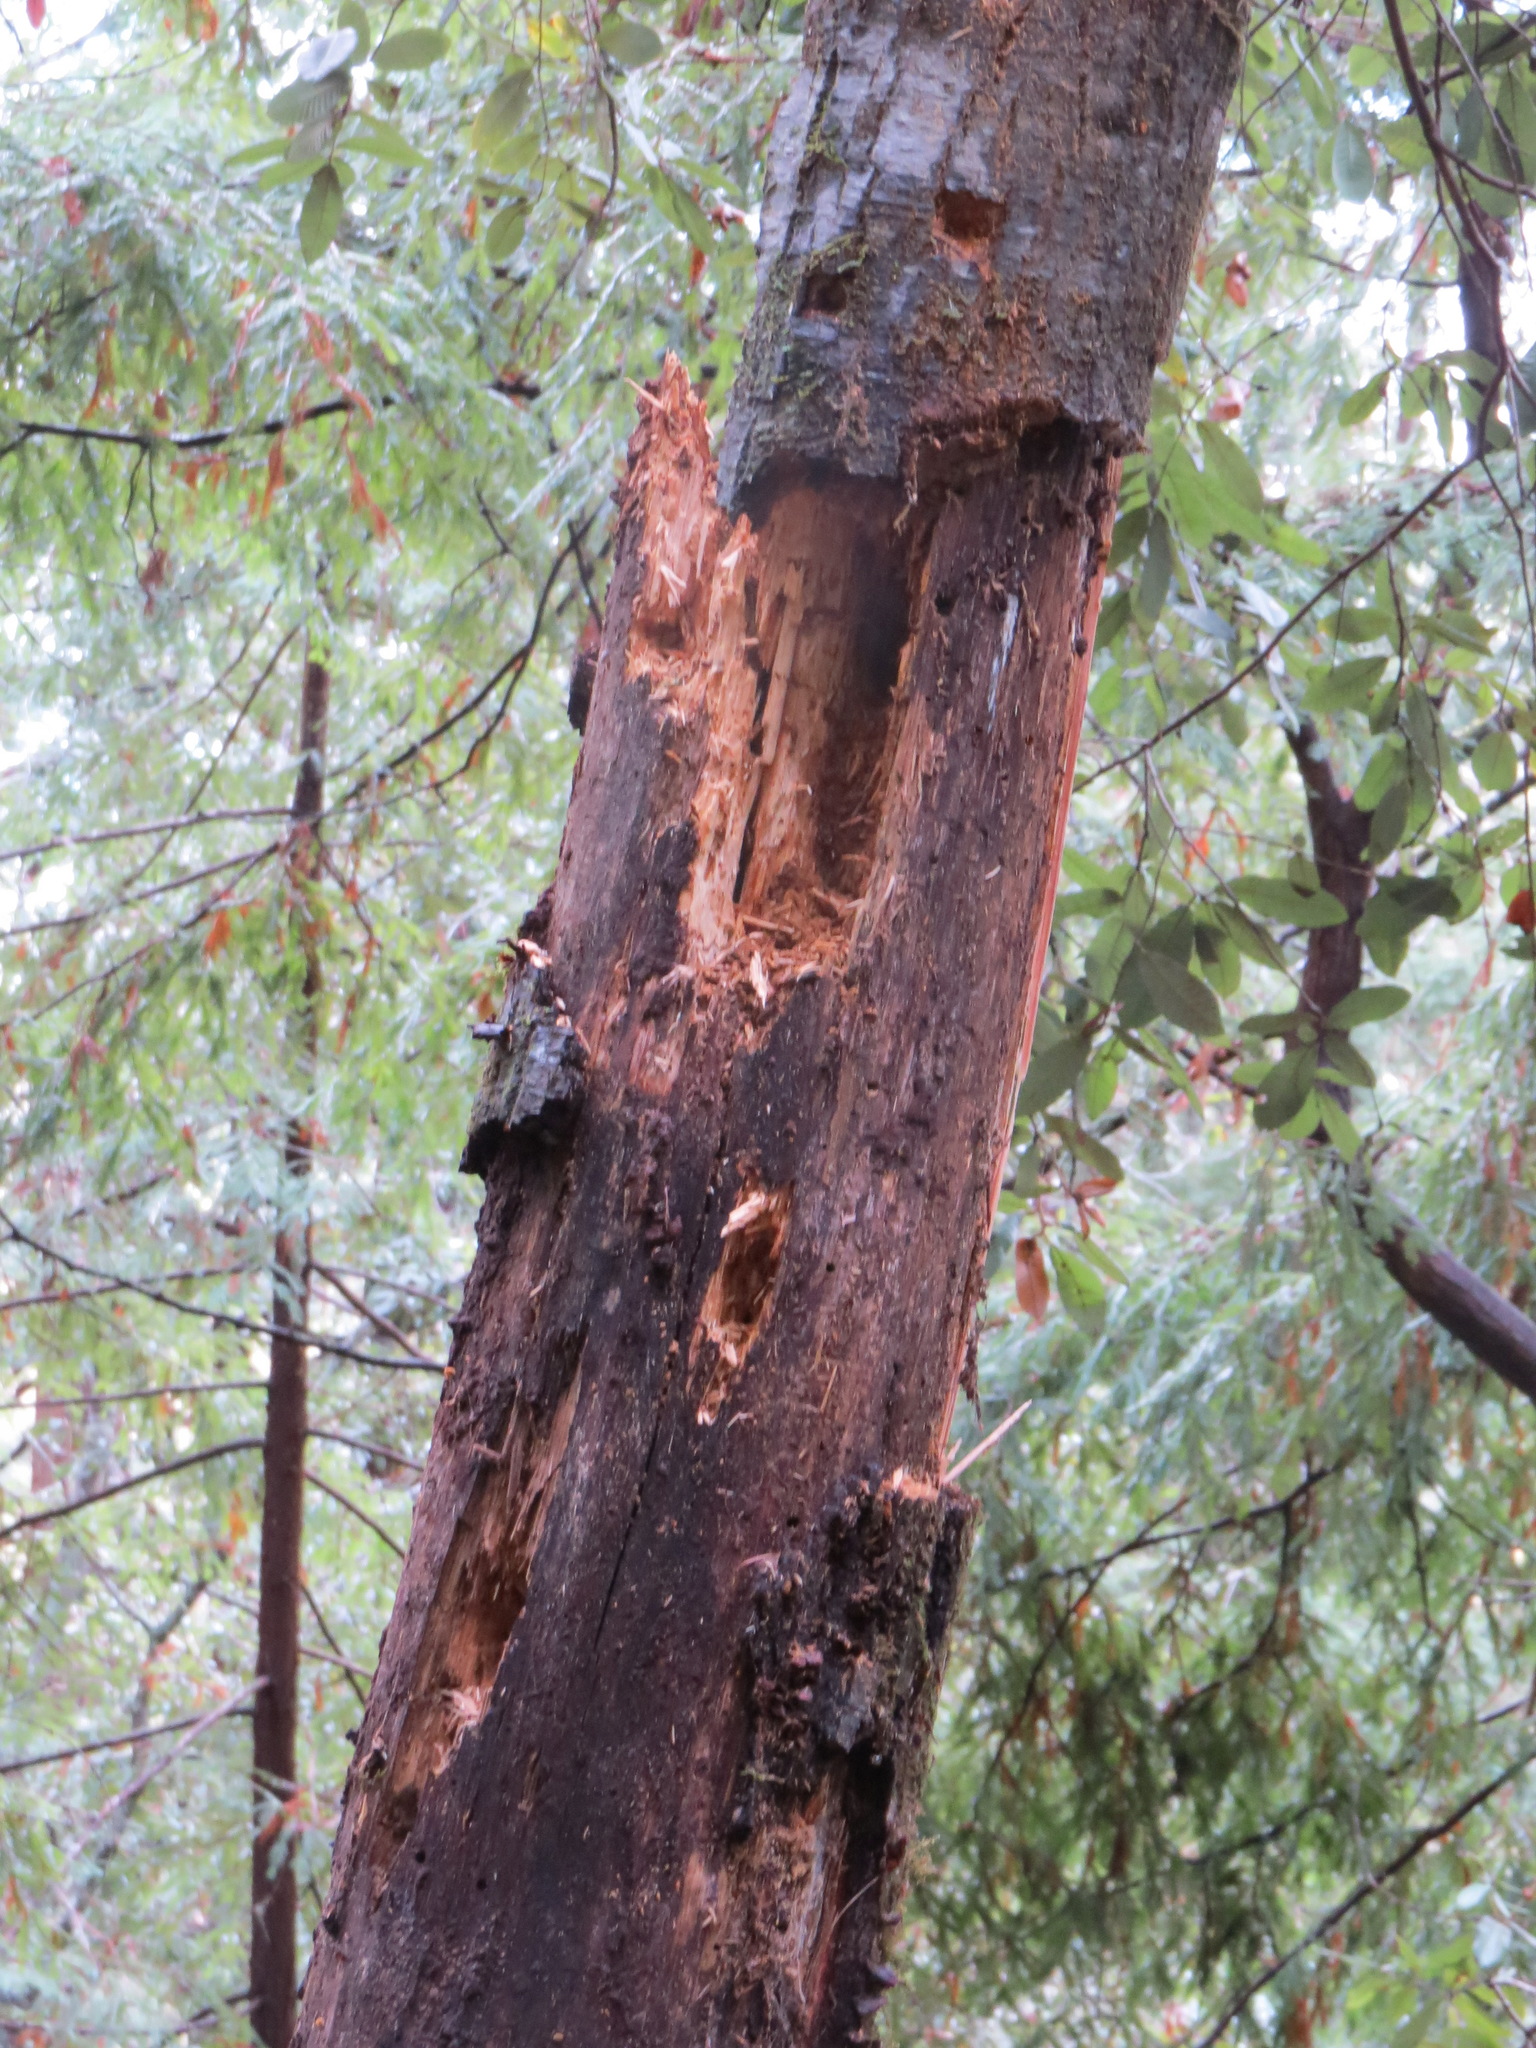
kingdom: Animalia
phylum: Chordata
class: Aves
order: Piciformes
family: Picidae
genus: Dryocopus
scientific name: Dryocopus pileatus
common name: Pileated woodpecker
